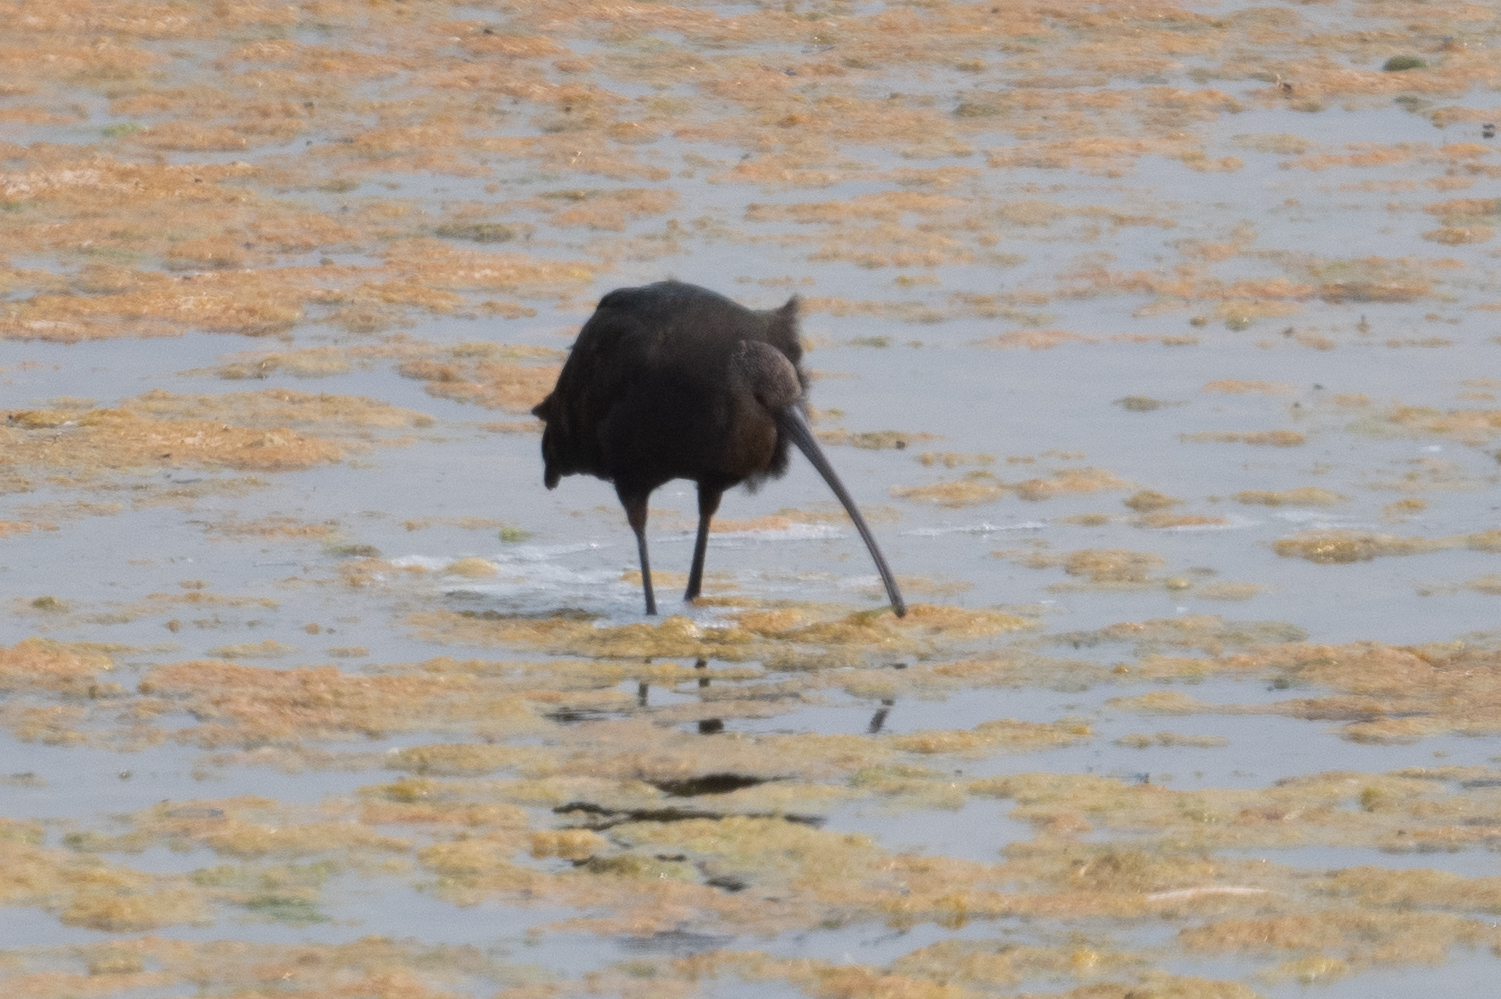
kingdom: Animalia
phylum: Chordata
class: Aves
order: Pelecaniformes
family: Threskiornithidae
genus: Plegadis
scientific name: Plegadis chihi
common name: White-faced ibis
